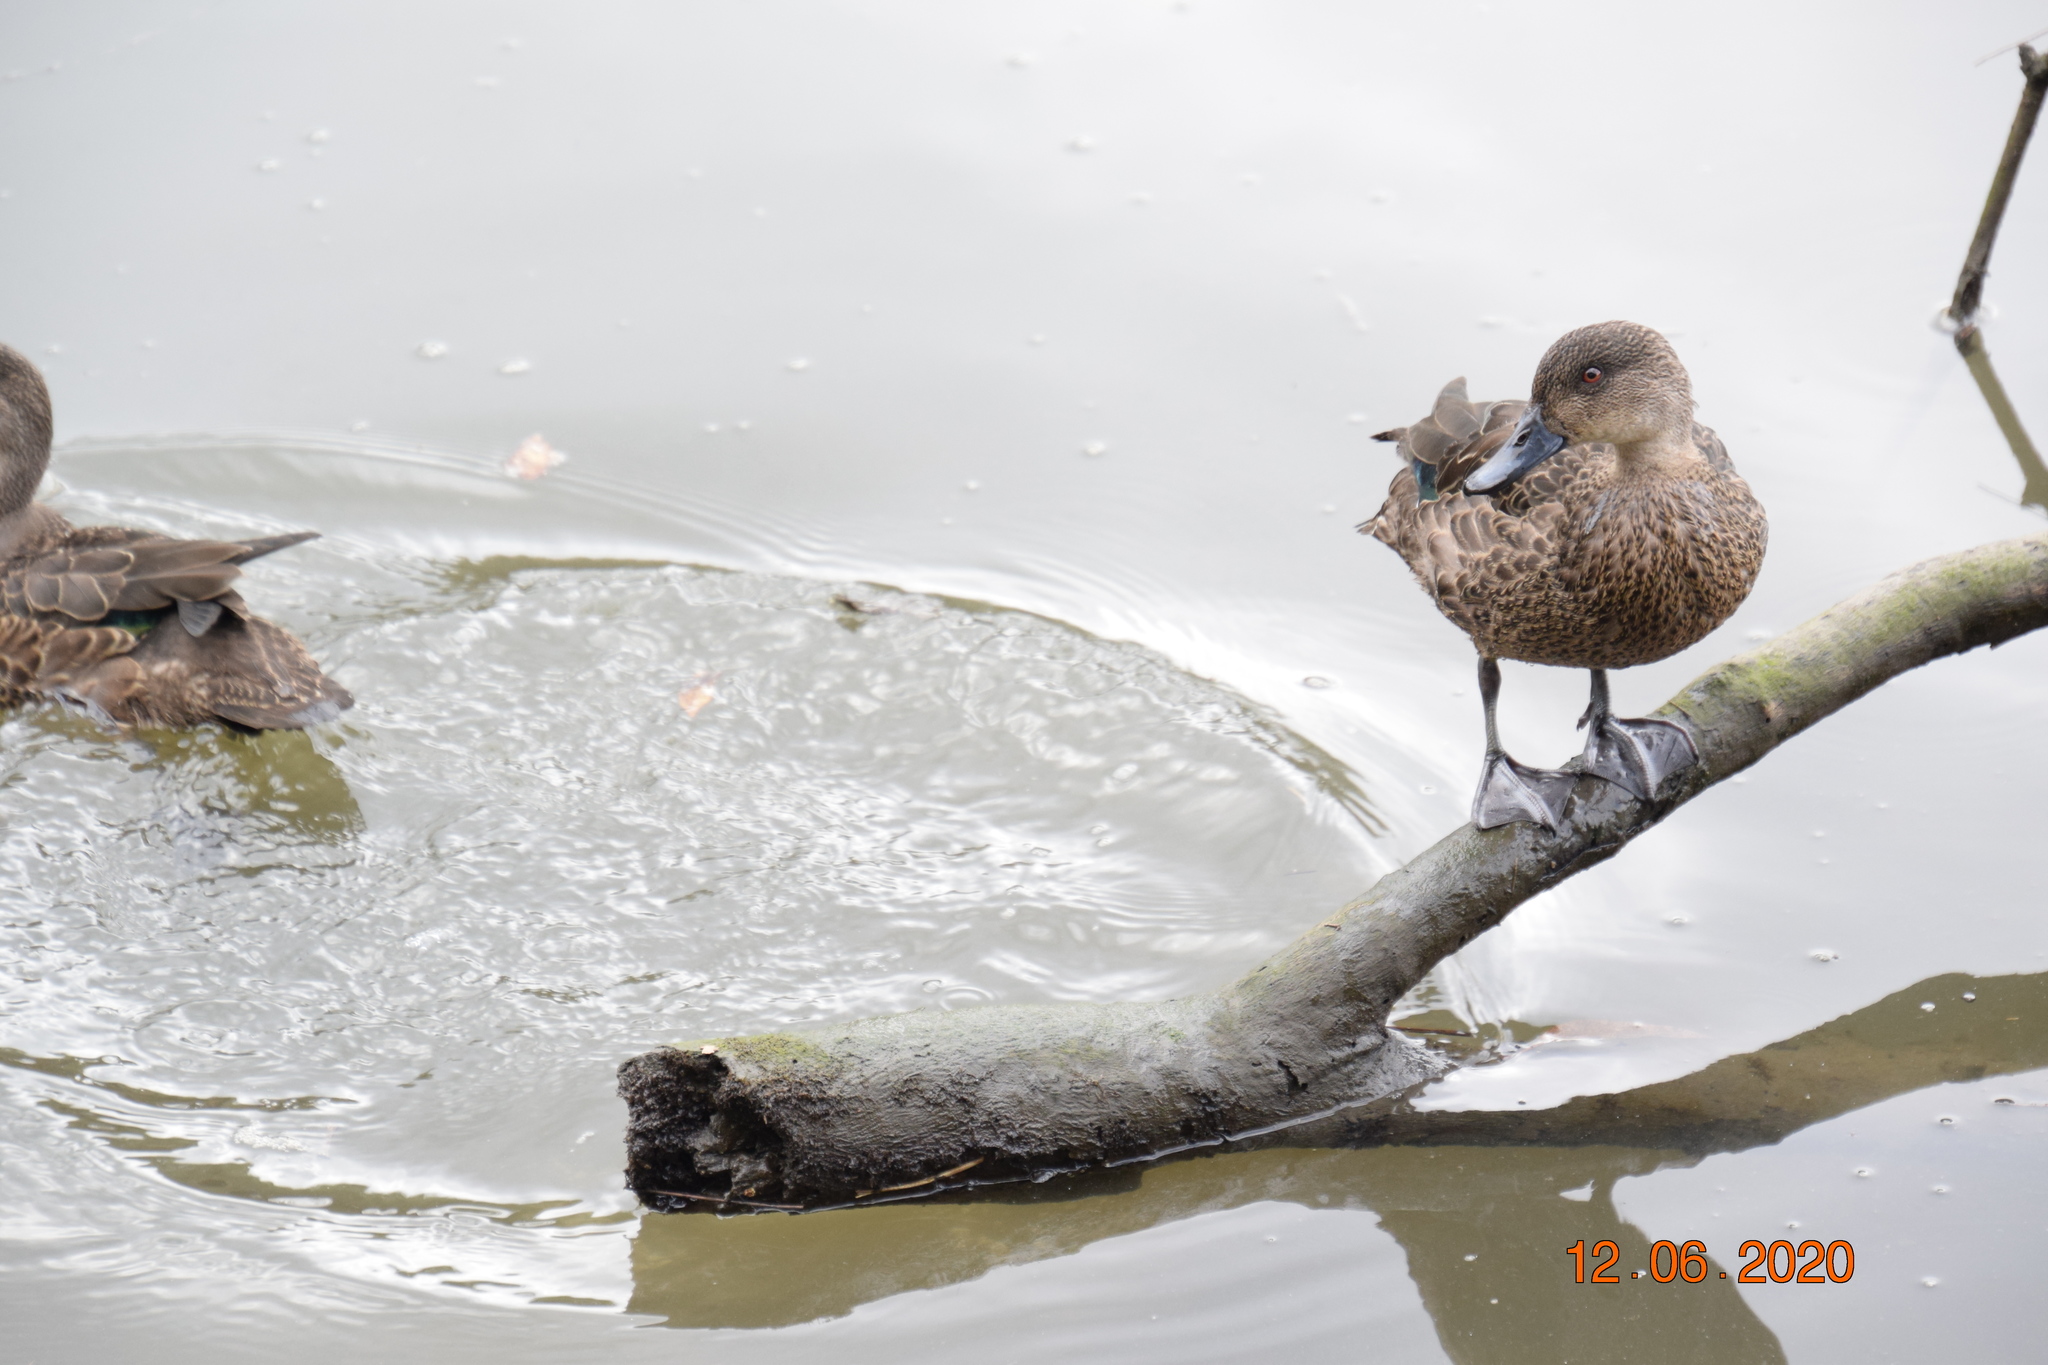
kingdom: Animalia
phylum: Chordata
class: Aves
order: Anseriformes
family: Anatidae
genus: Anas
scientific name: Anas castanea
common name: Chestnut teal
